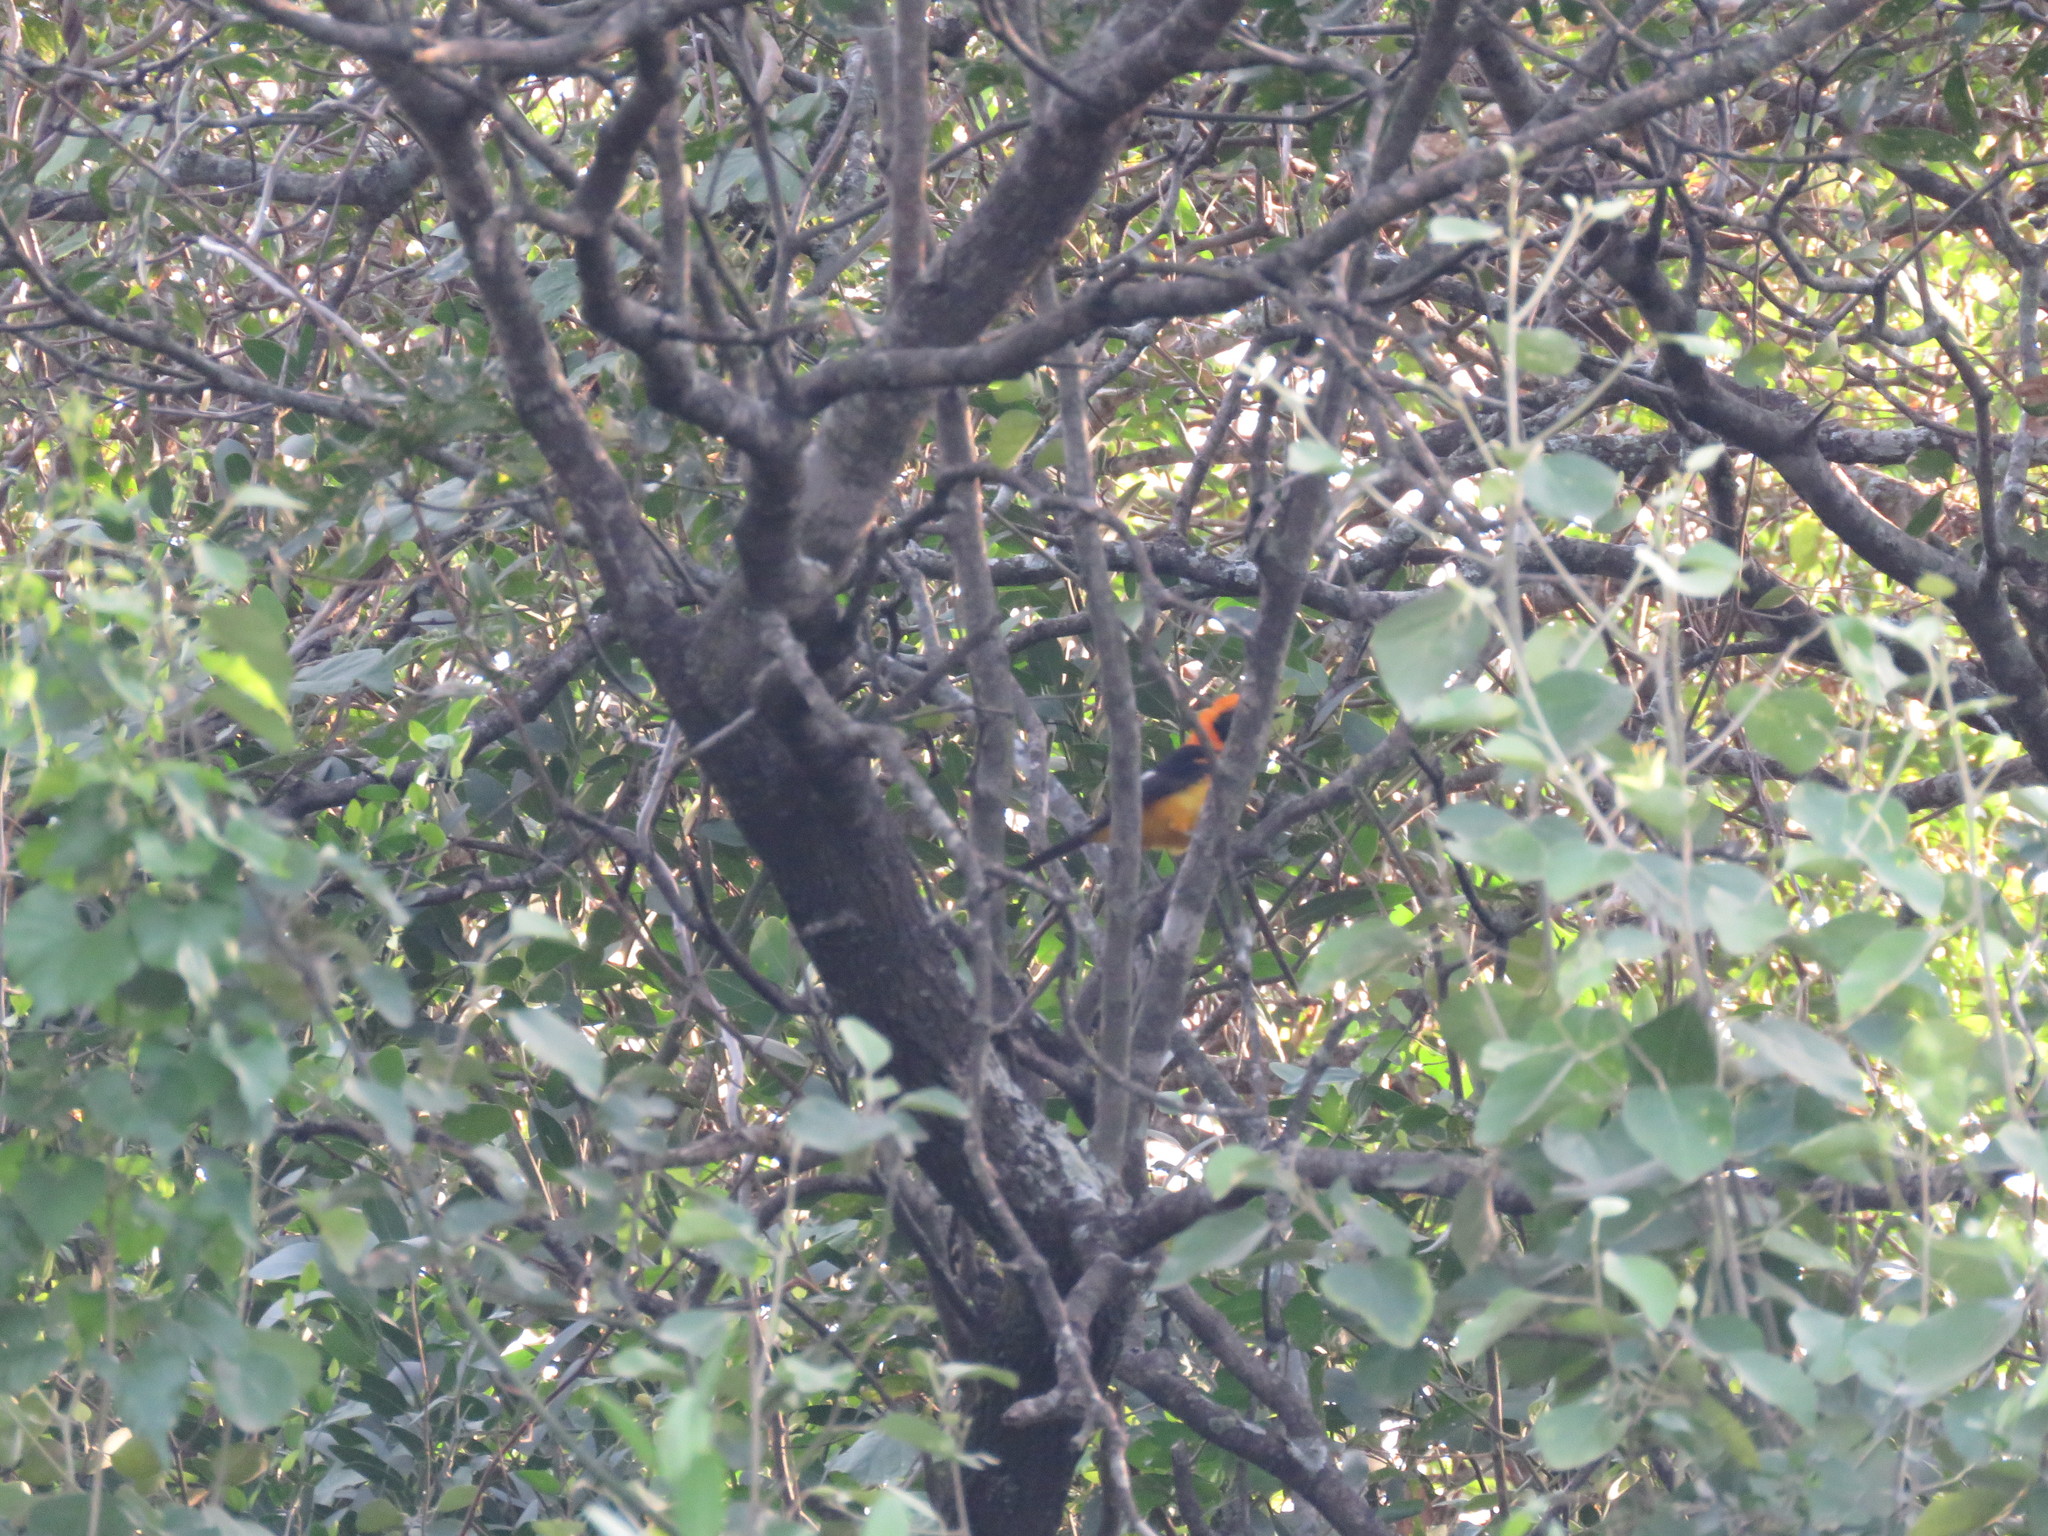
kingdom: Animalia
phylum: Chordata
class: Aves
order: Passeriformes
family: Icteridae
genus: Icterus
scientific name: Icterus icterus
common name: Venezuelan troupial
